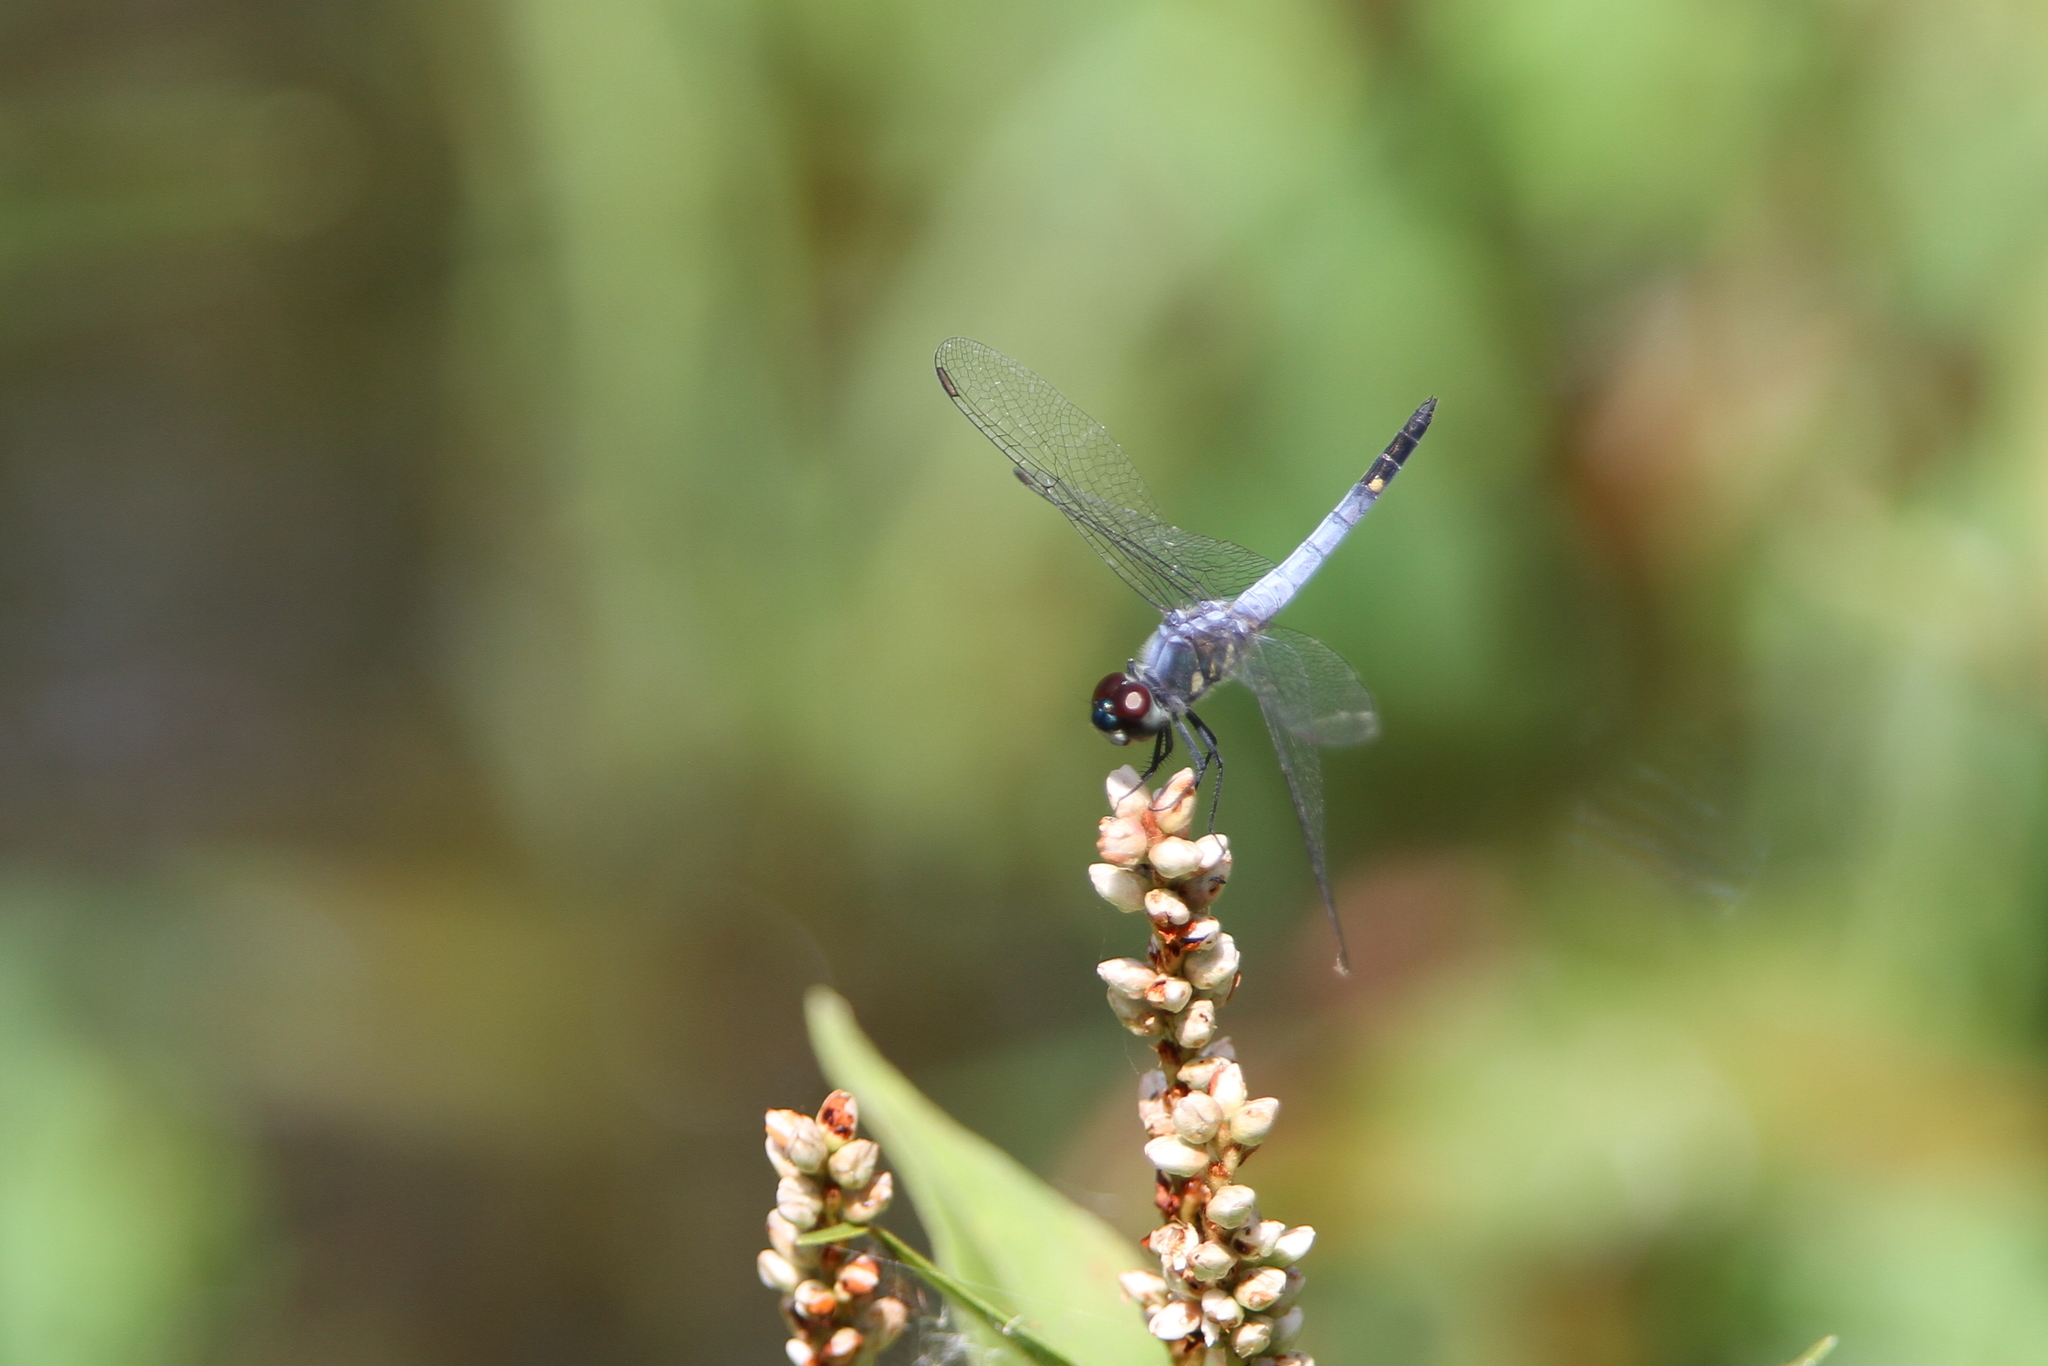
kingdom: Animalia
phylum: Arthropoda
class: Insecta
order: Odonata
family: Libellulidae
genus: Brachydiplax
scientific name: Brachydiplax sobrina
